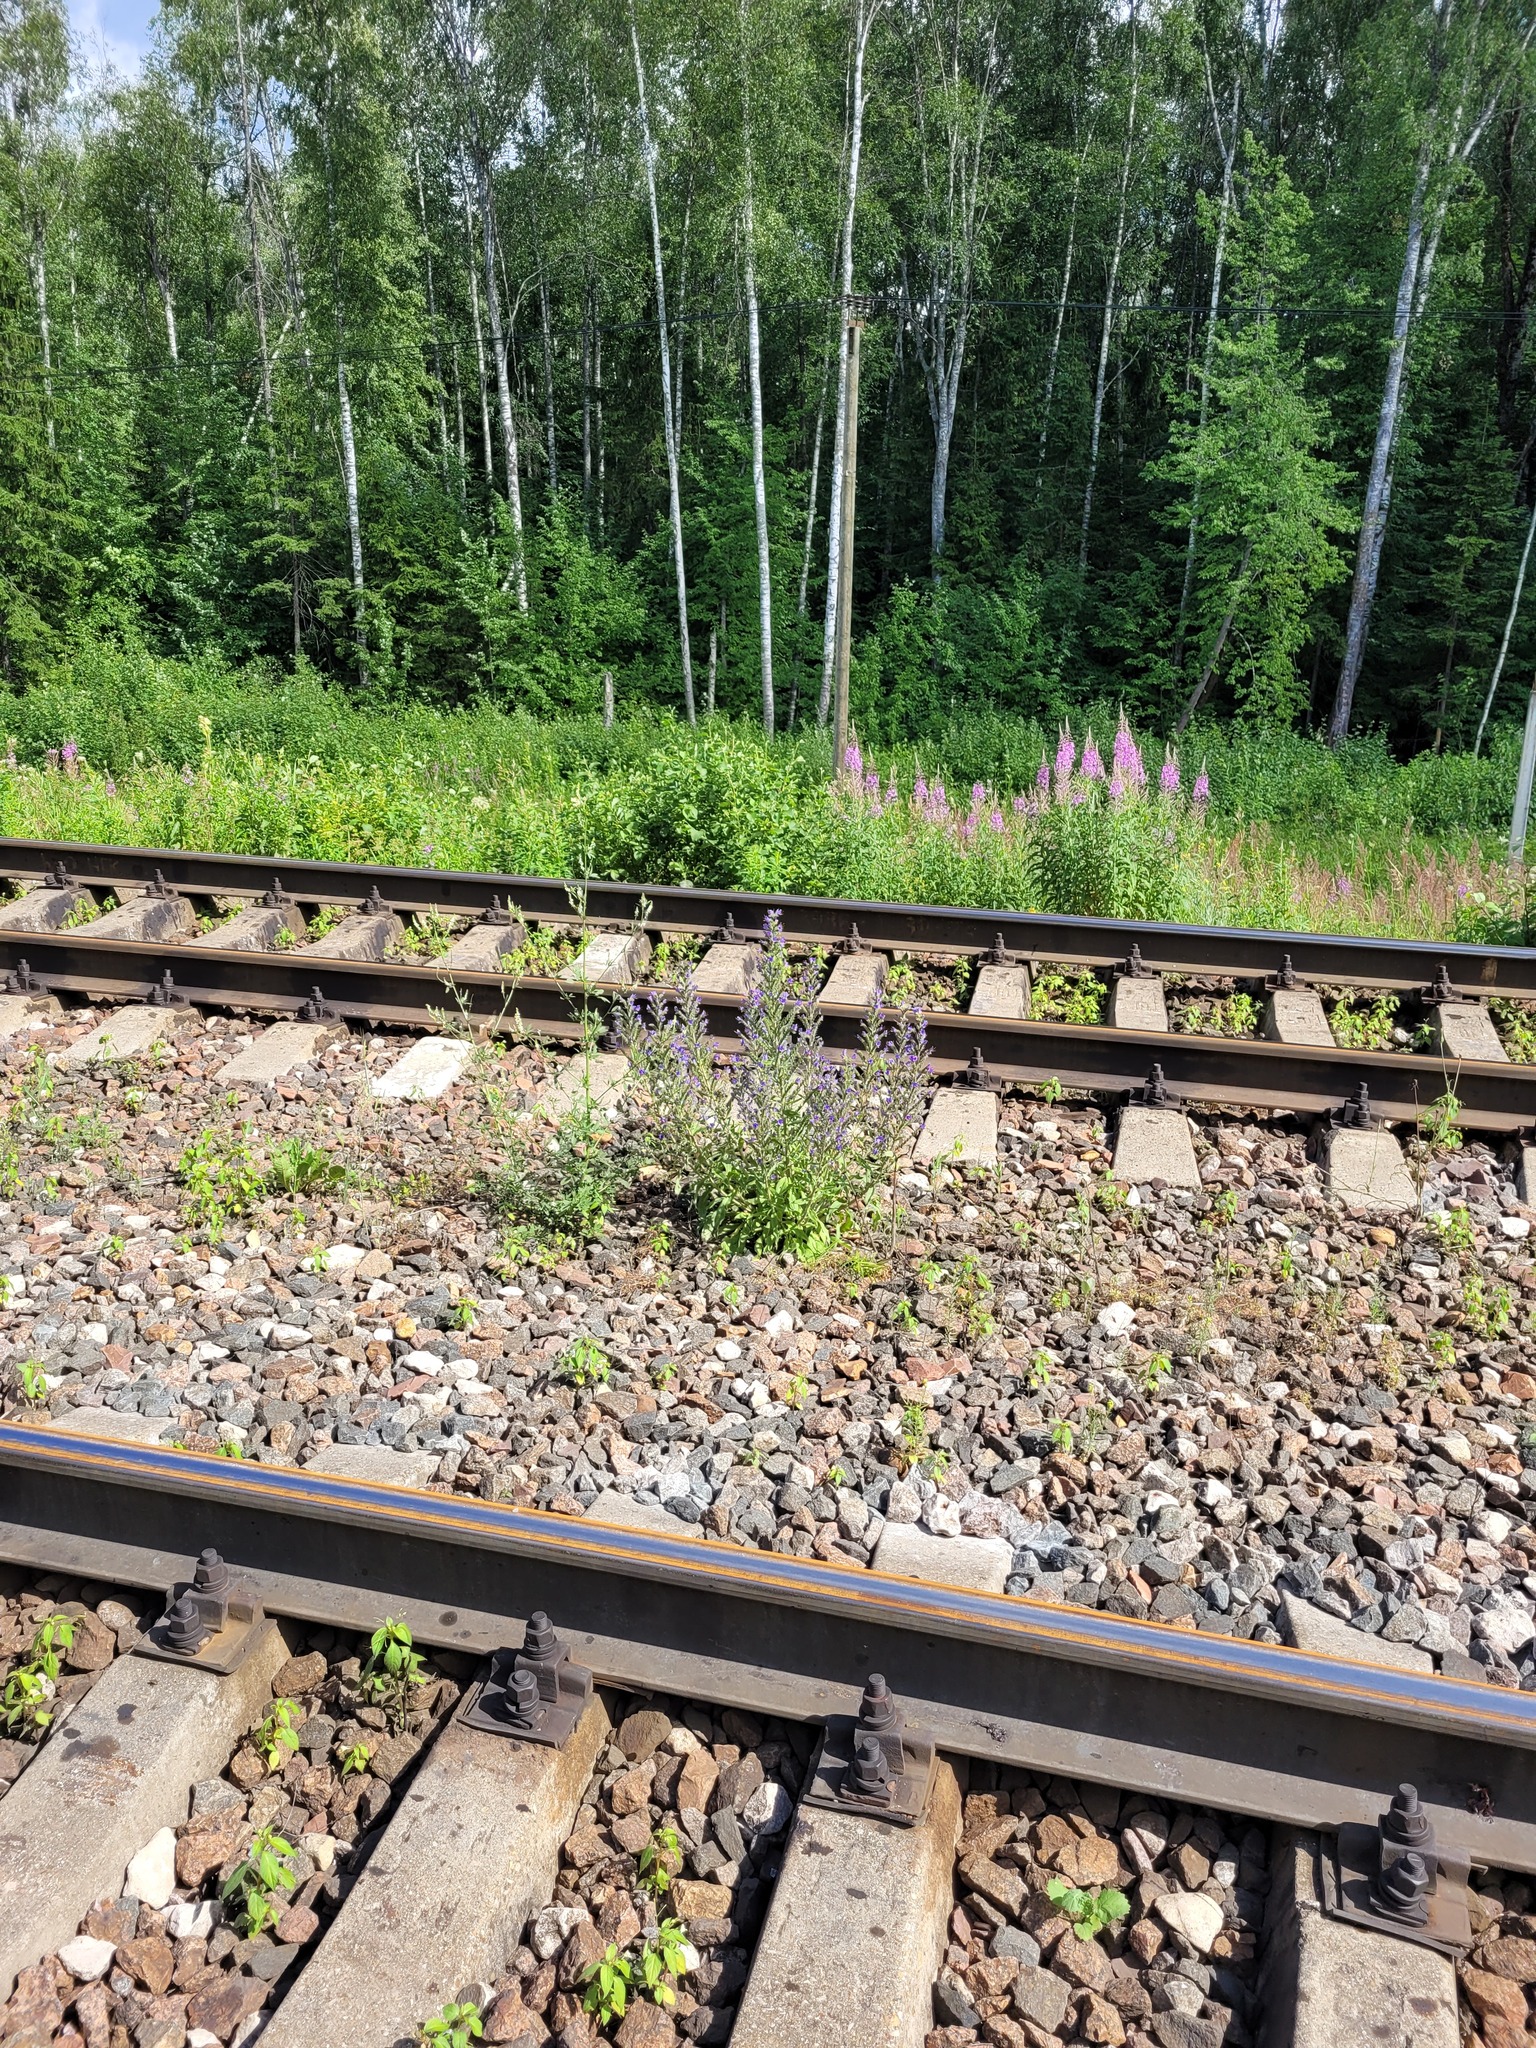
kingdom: Plantae
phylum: Tracheophyta
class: Magnoliopsida
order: Boraginales
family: Boraginaceae
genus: Echium
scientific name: Echium vulgare
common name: Common viper's bugloss
